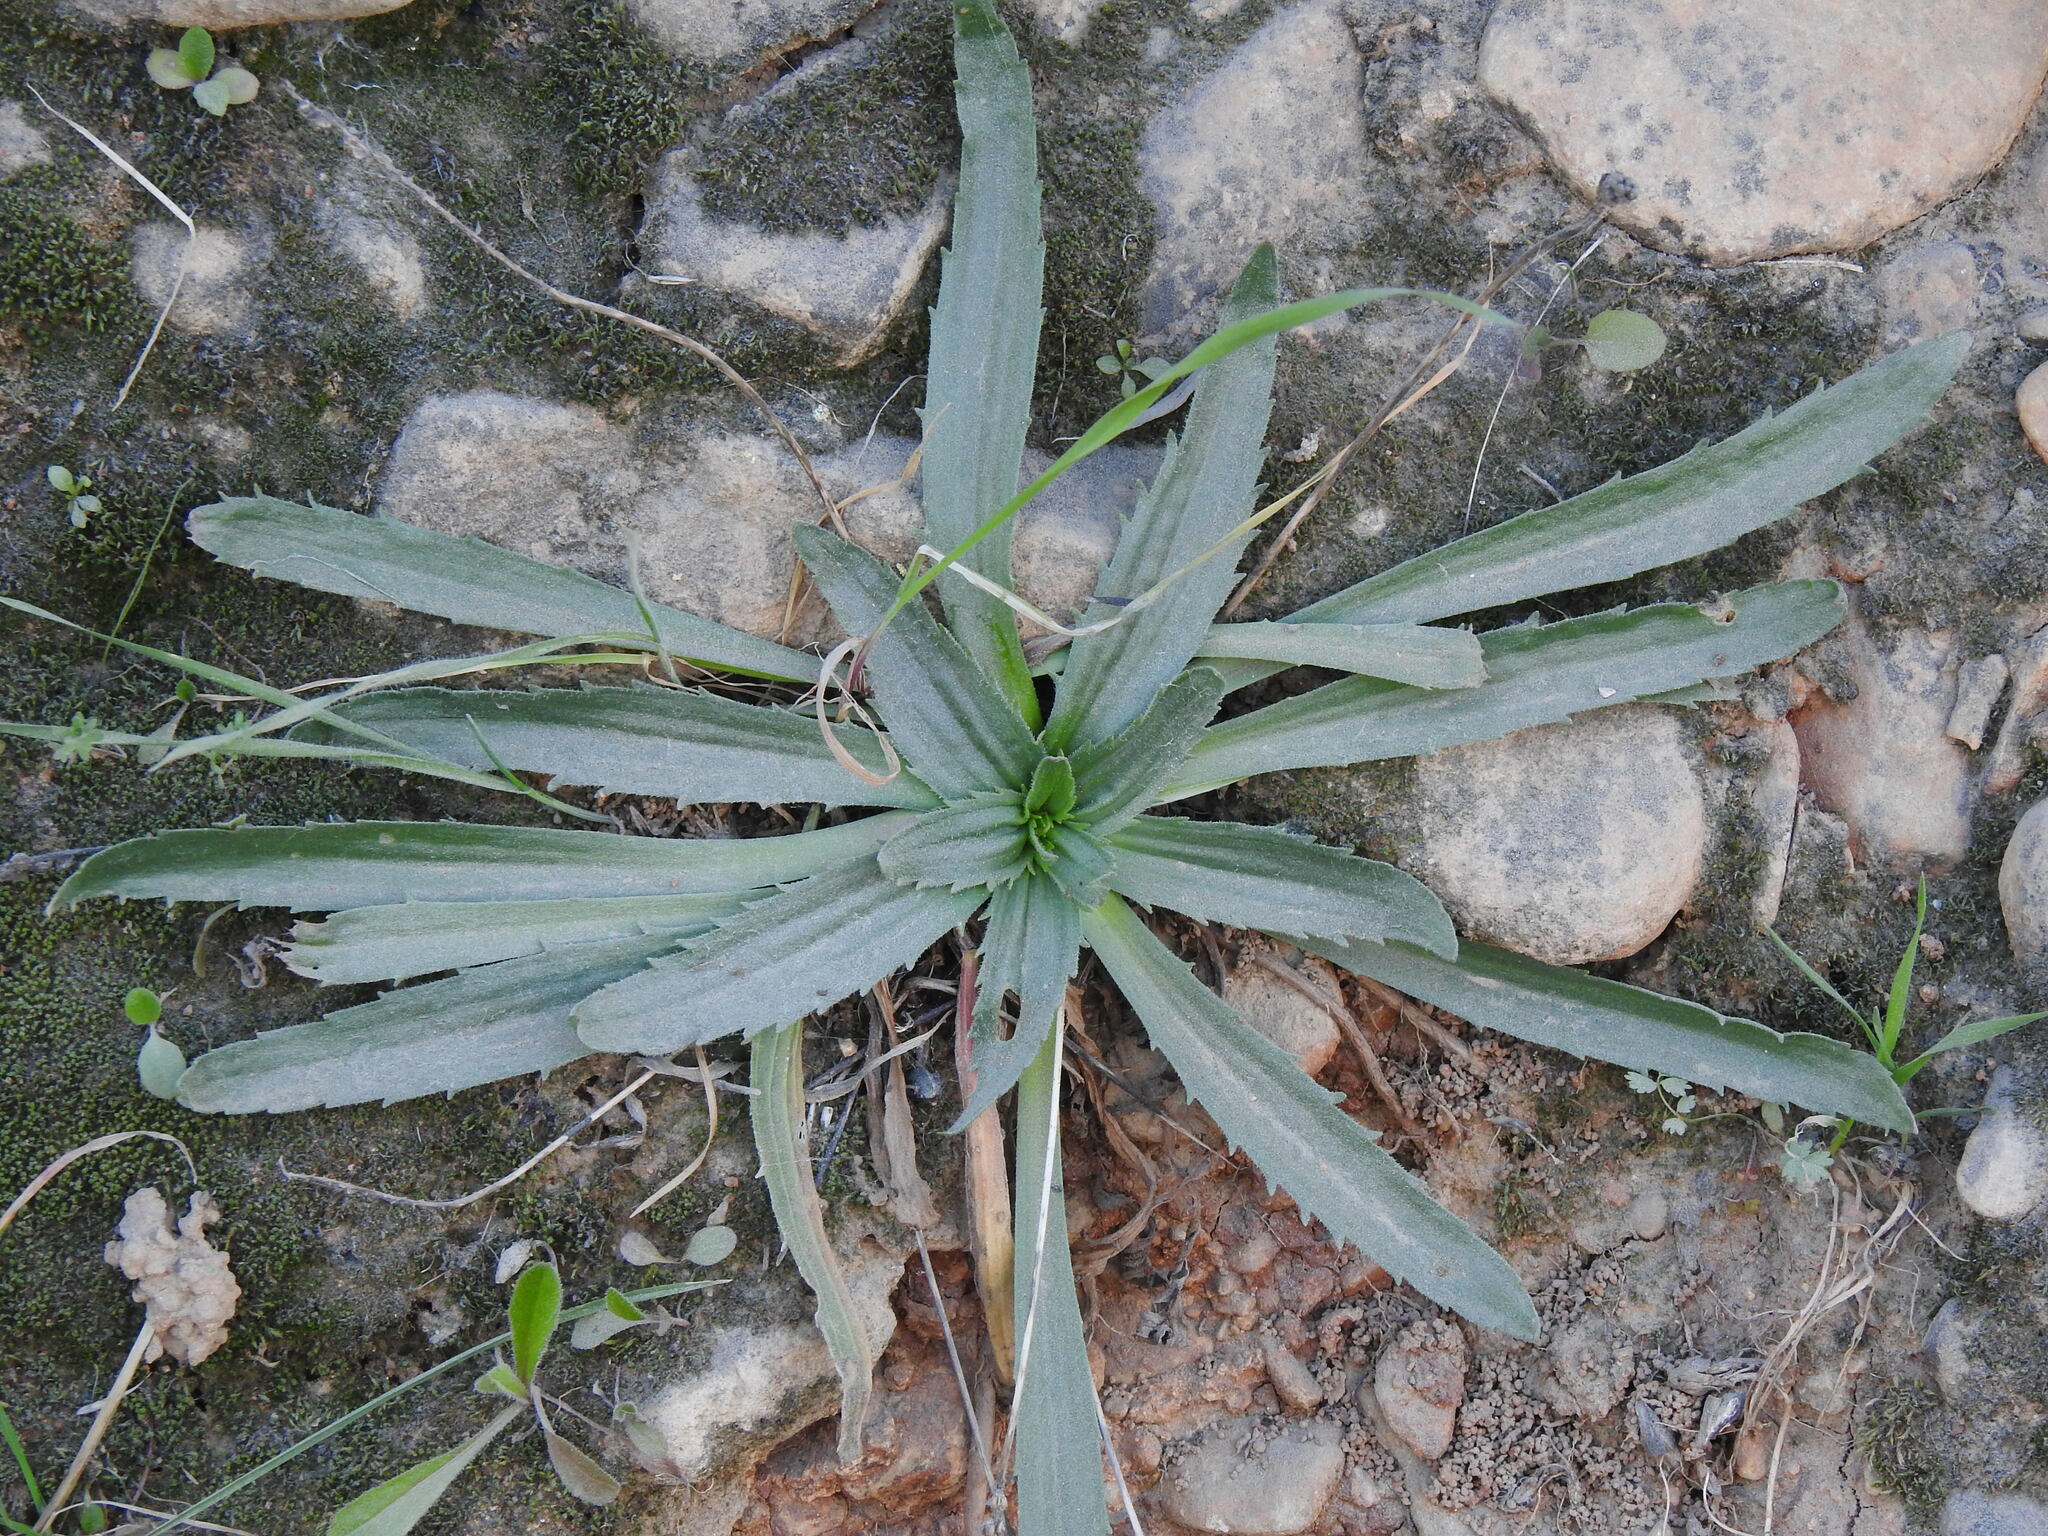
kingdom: Plantae
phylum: Tracheophyta
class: Magnoliopsida
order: Lamiales
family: Plantaginaceae
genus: Plantago
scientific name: Plantago serraria
